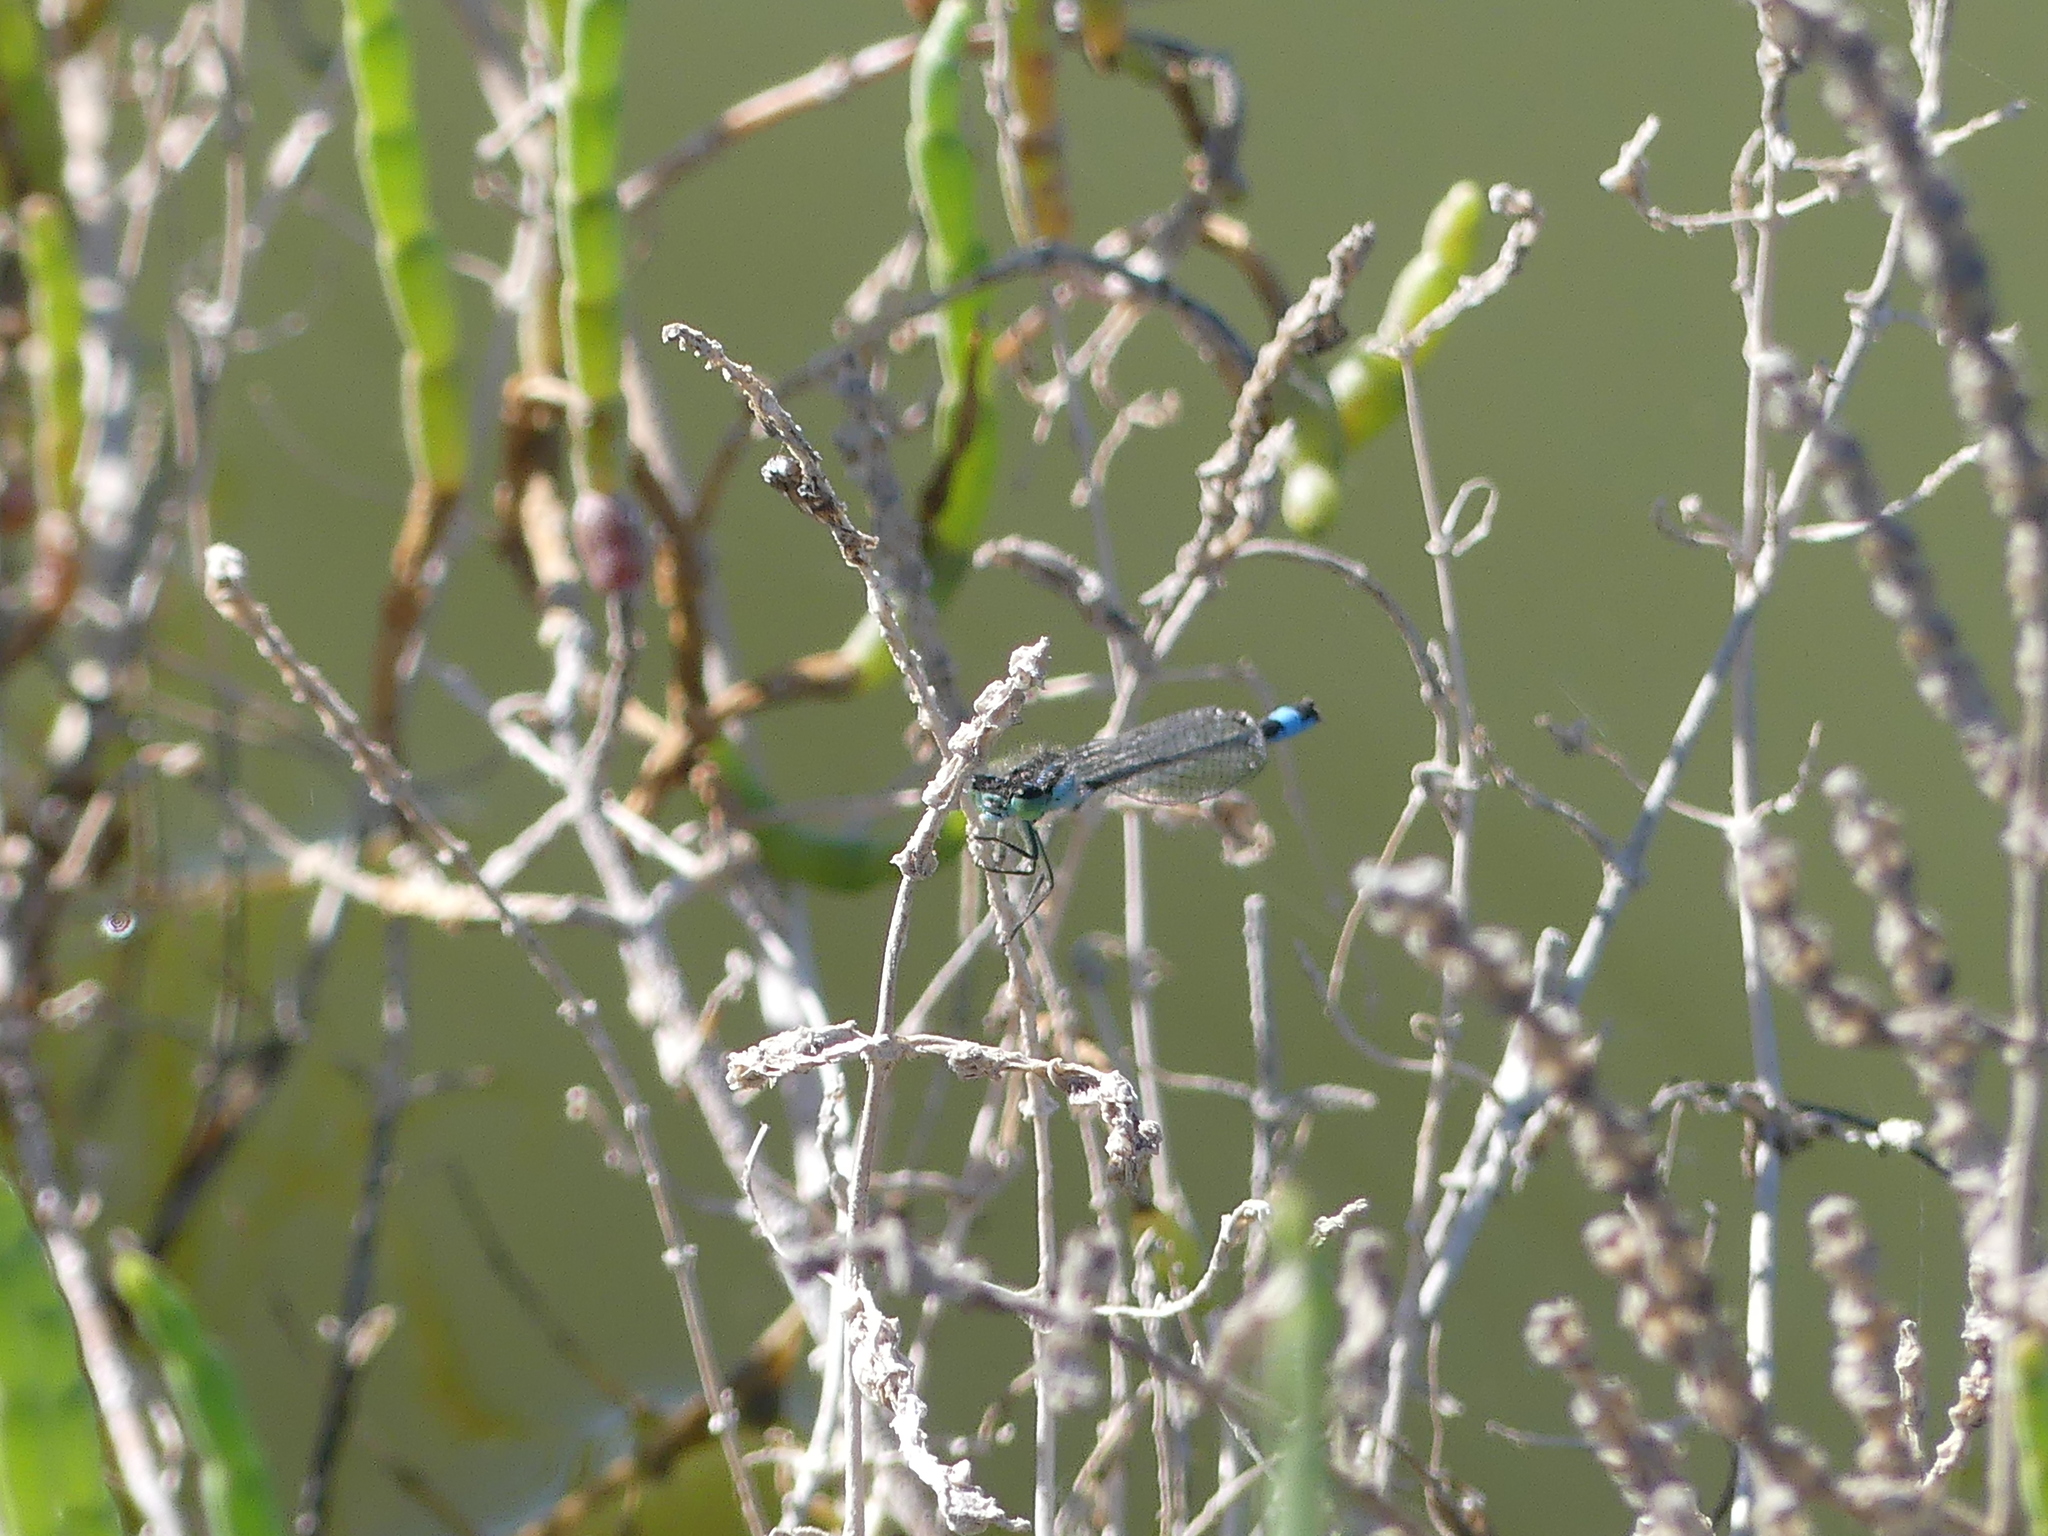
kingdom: Animalia
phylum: Arthropoda
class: Insecta
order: Odonata
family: Coenagrionidae
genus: Ischnura
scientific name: Ischnura elegans
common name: Blue-tailed damselfly
